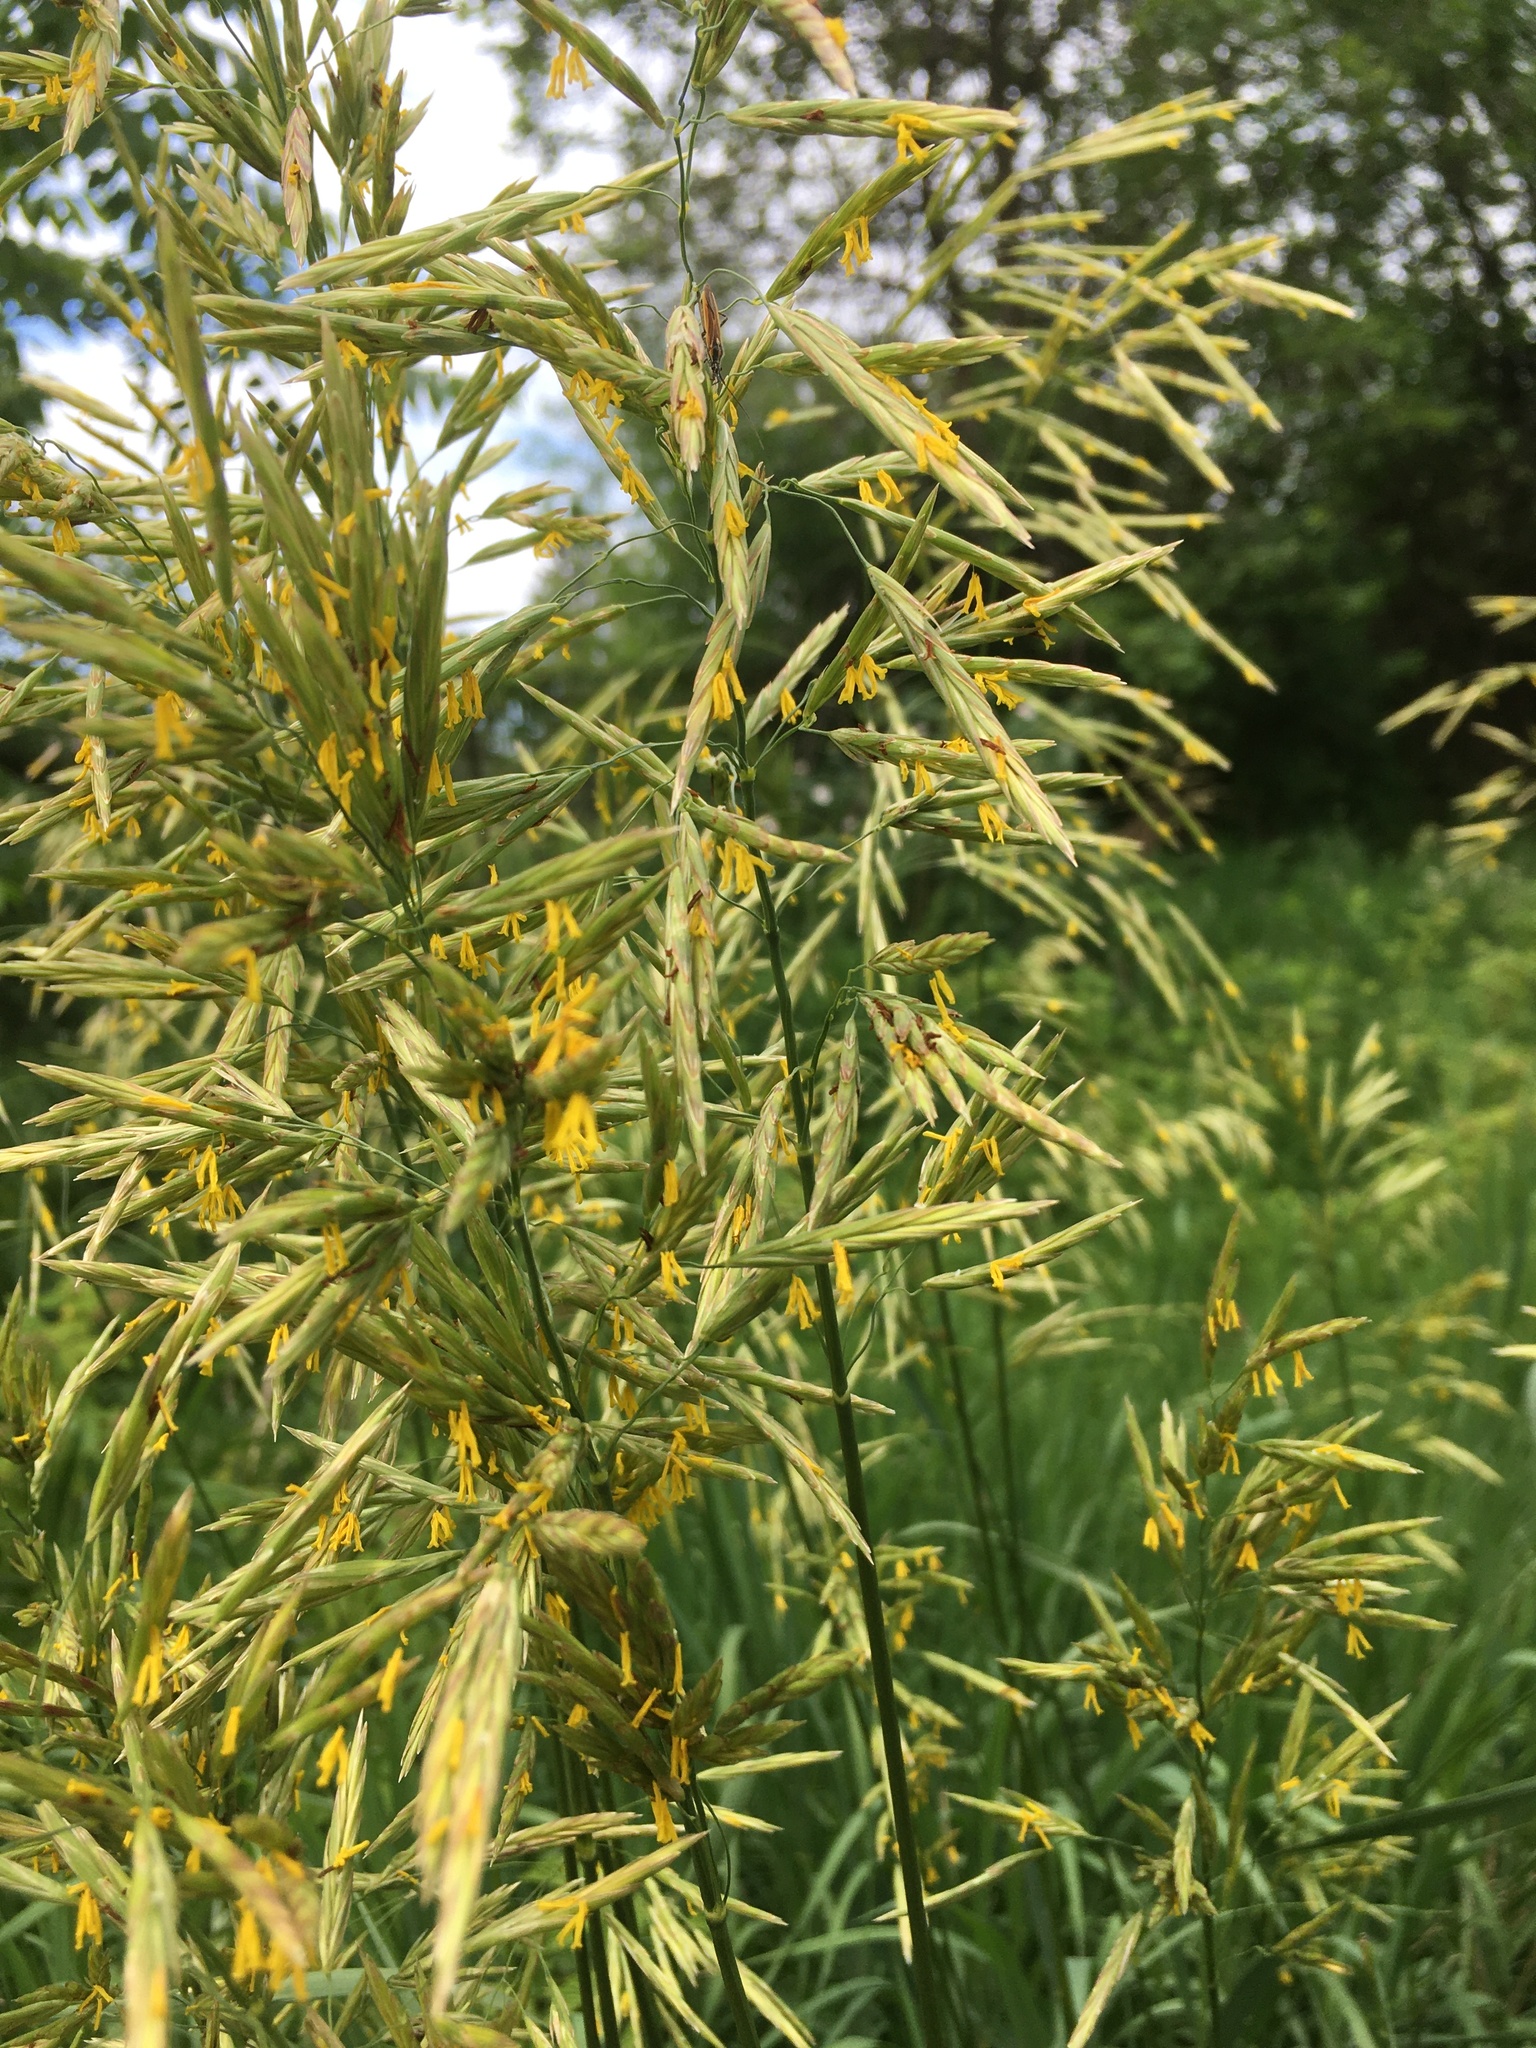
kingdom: Plantae
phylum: Tracheophyta
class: Liliopsida
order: Poales
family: Poaceae
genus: Bromus
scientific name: Bromus inermis
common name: Smooth brome
